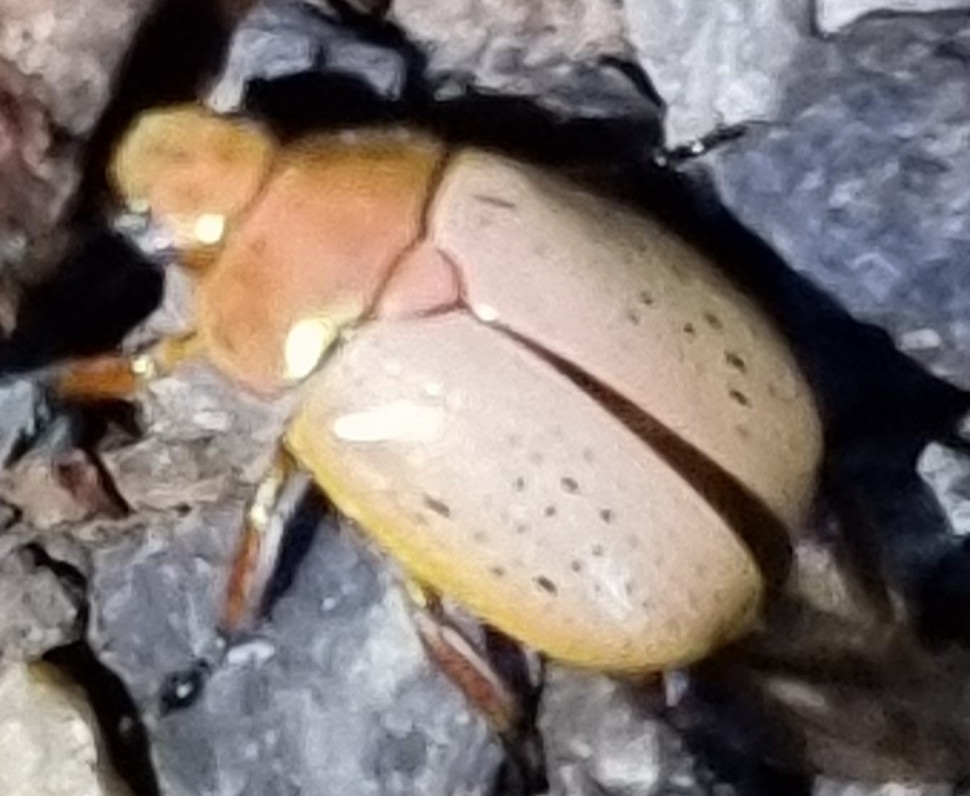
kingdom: Animalia
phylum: Arthropoda
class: Insecta
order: Coleoptera
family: Scarabaeidae
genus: Anoplognathus
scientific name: Anoplognathus porosus
